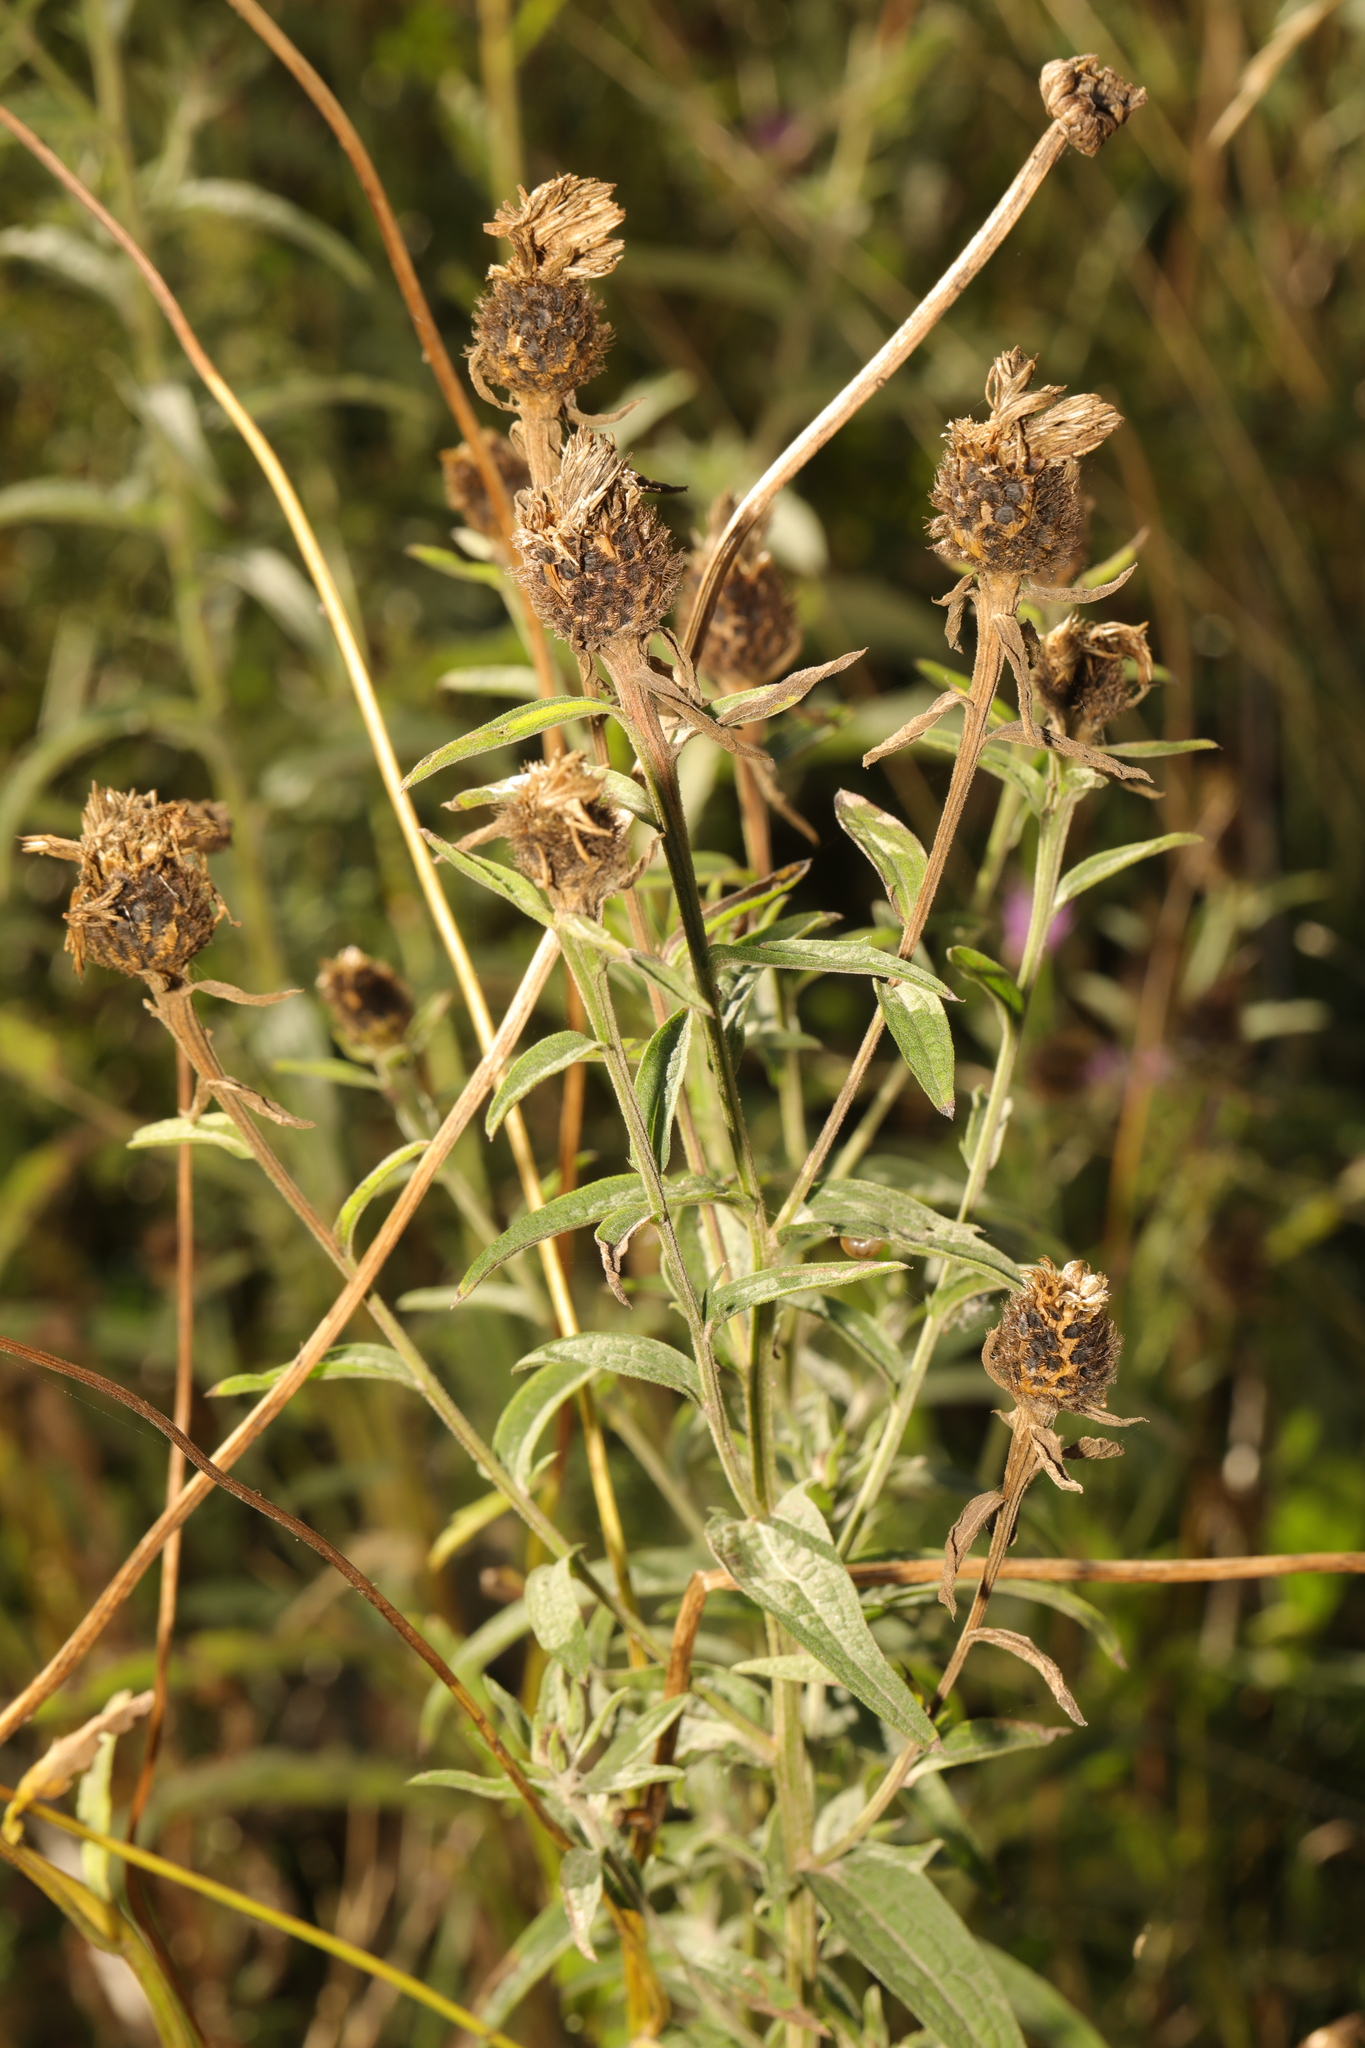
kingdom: Plantae
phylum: Tracheophyta
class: Magnoliopsida
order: Asterales
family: Asteraceae
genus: Centaurea
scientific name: Centaurea nigra
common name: Lesser knapweed
